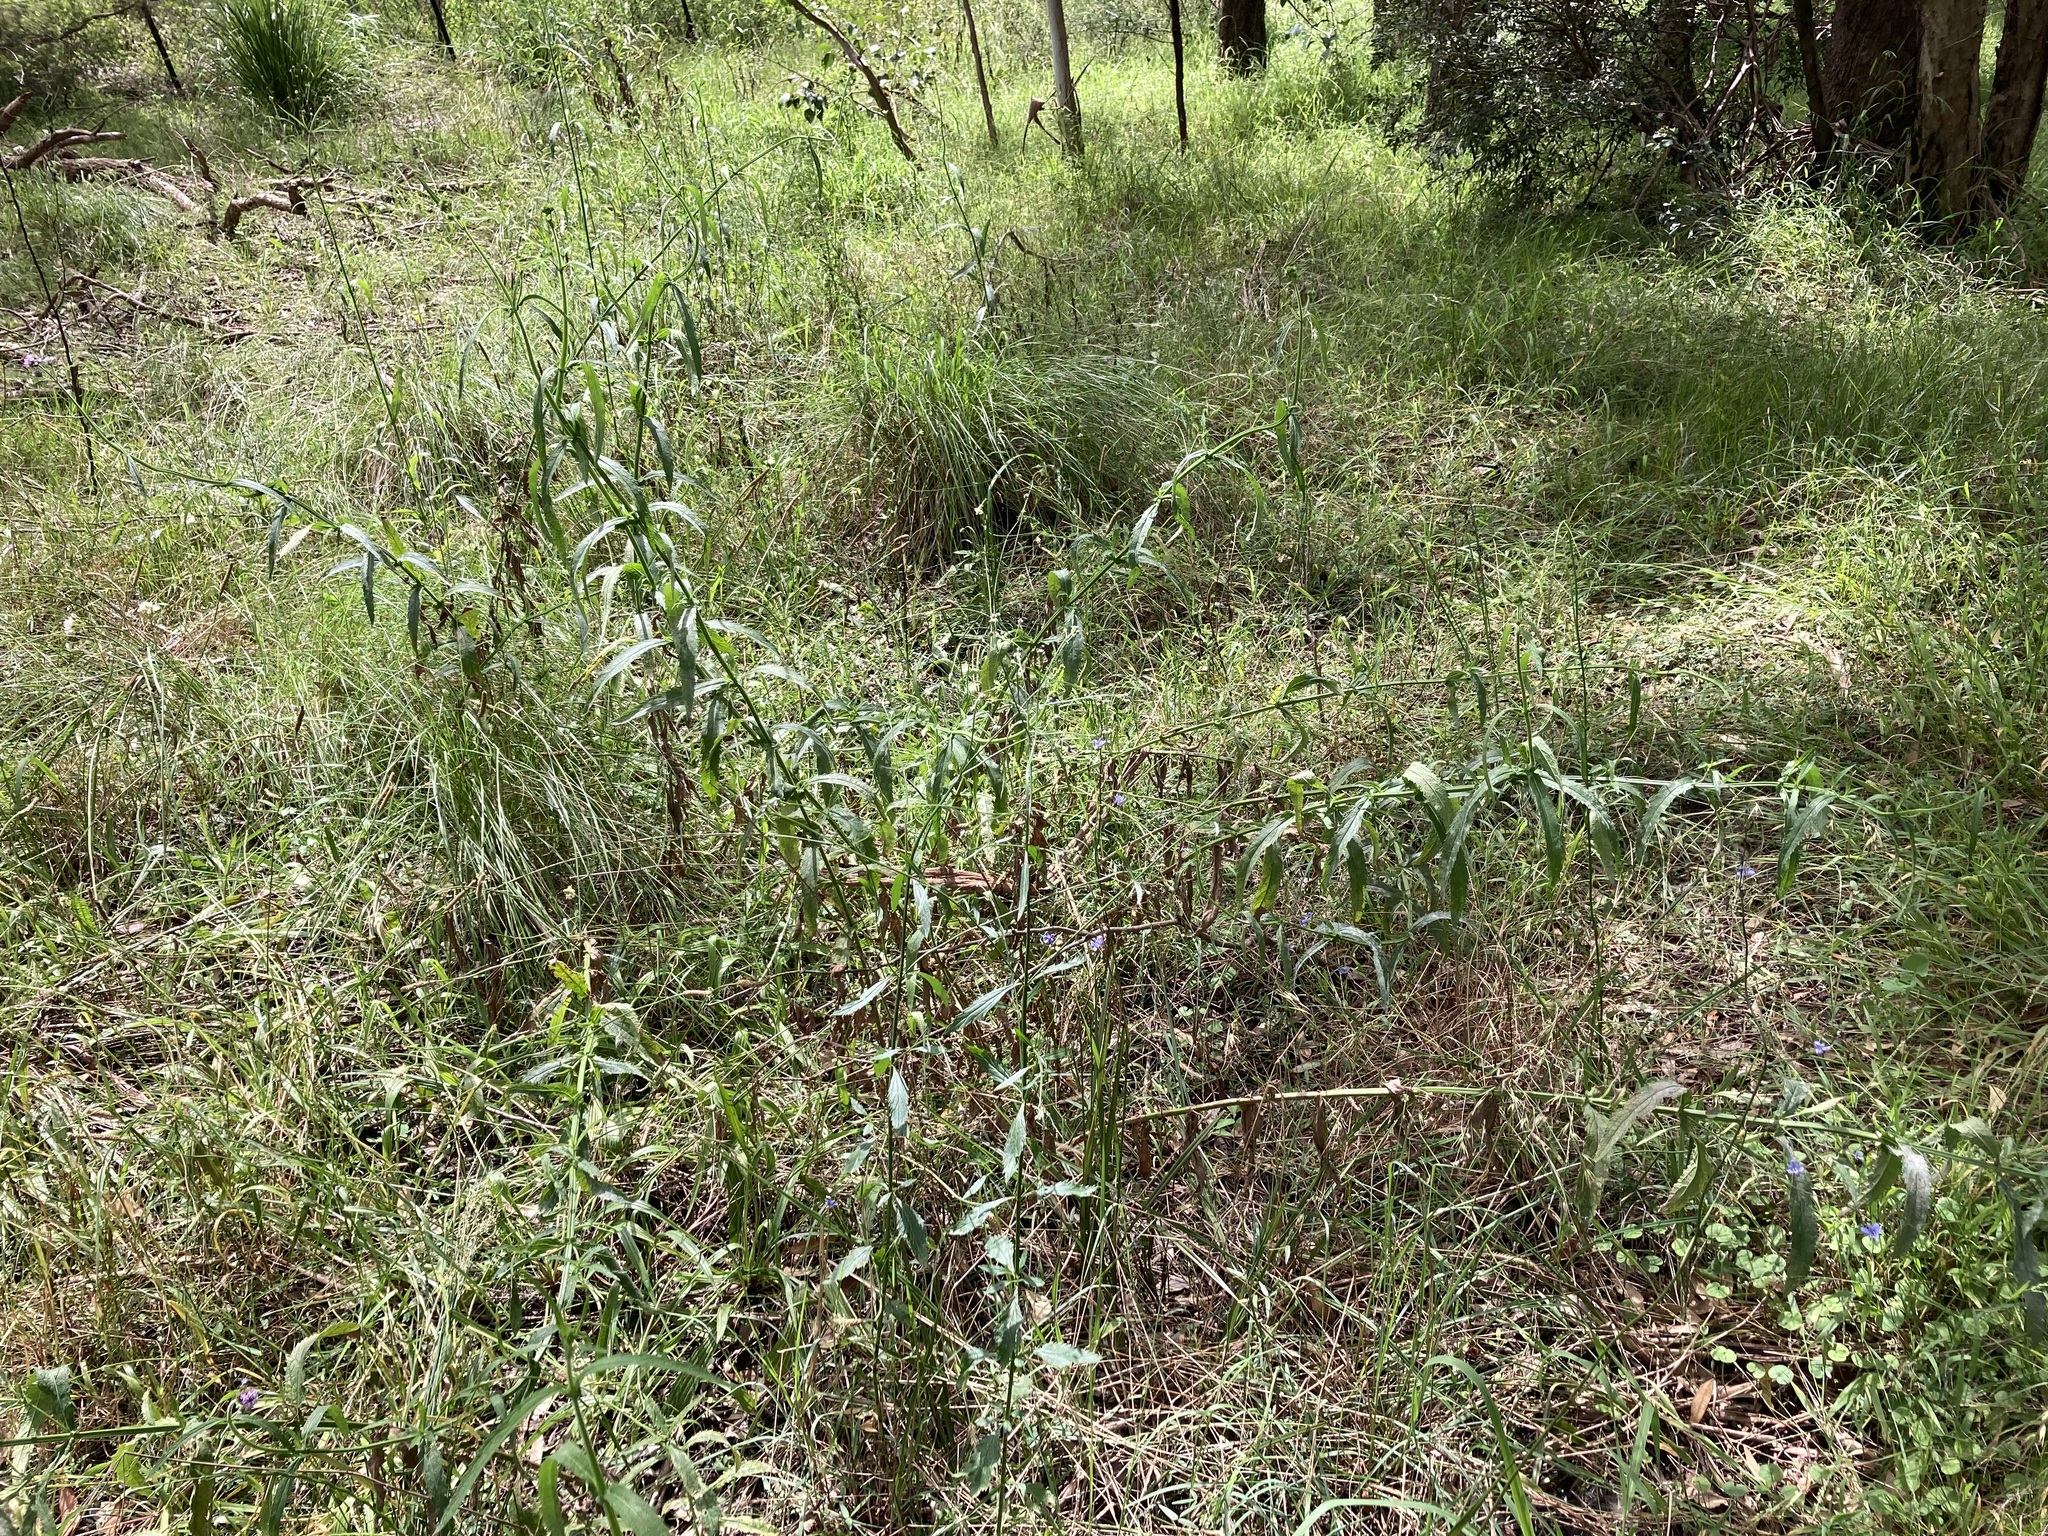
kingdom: Plantae
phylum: Tracheophyta
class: Magnoliopsida
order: Lamiales
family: Verbenaceae
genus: Verbena
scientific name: Verbena bonariensis
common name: Purpletop vervain
